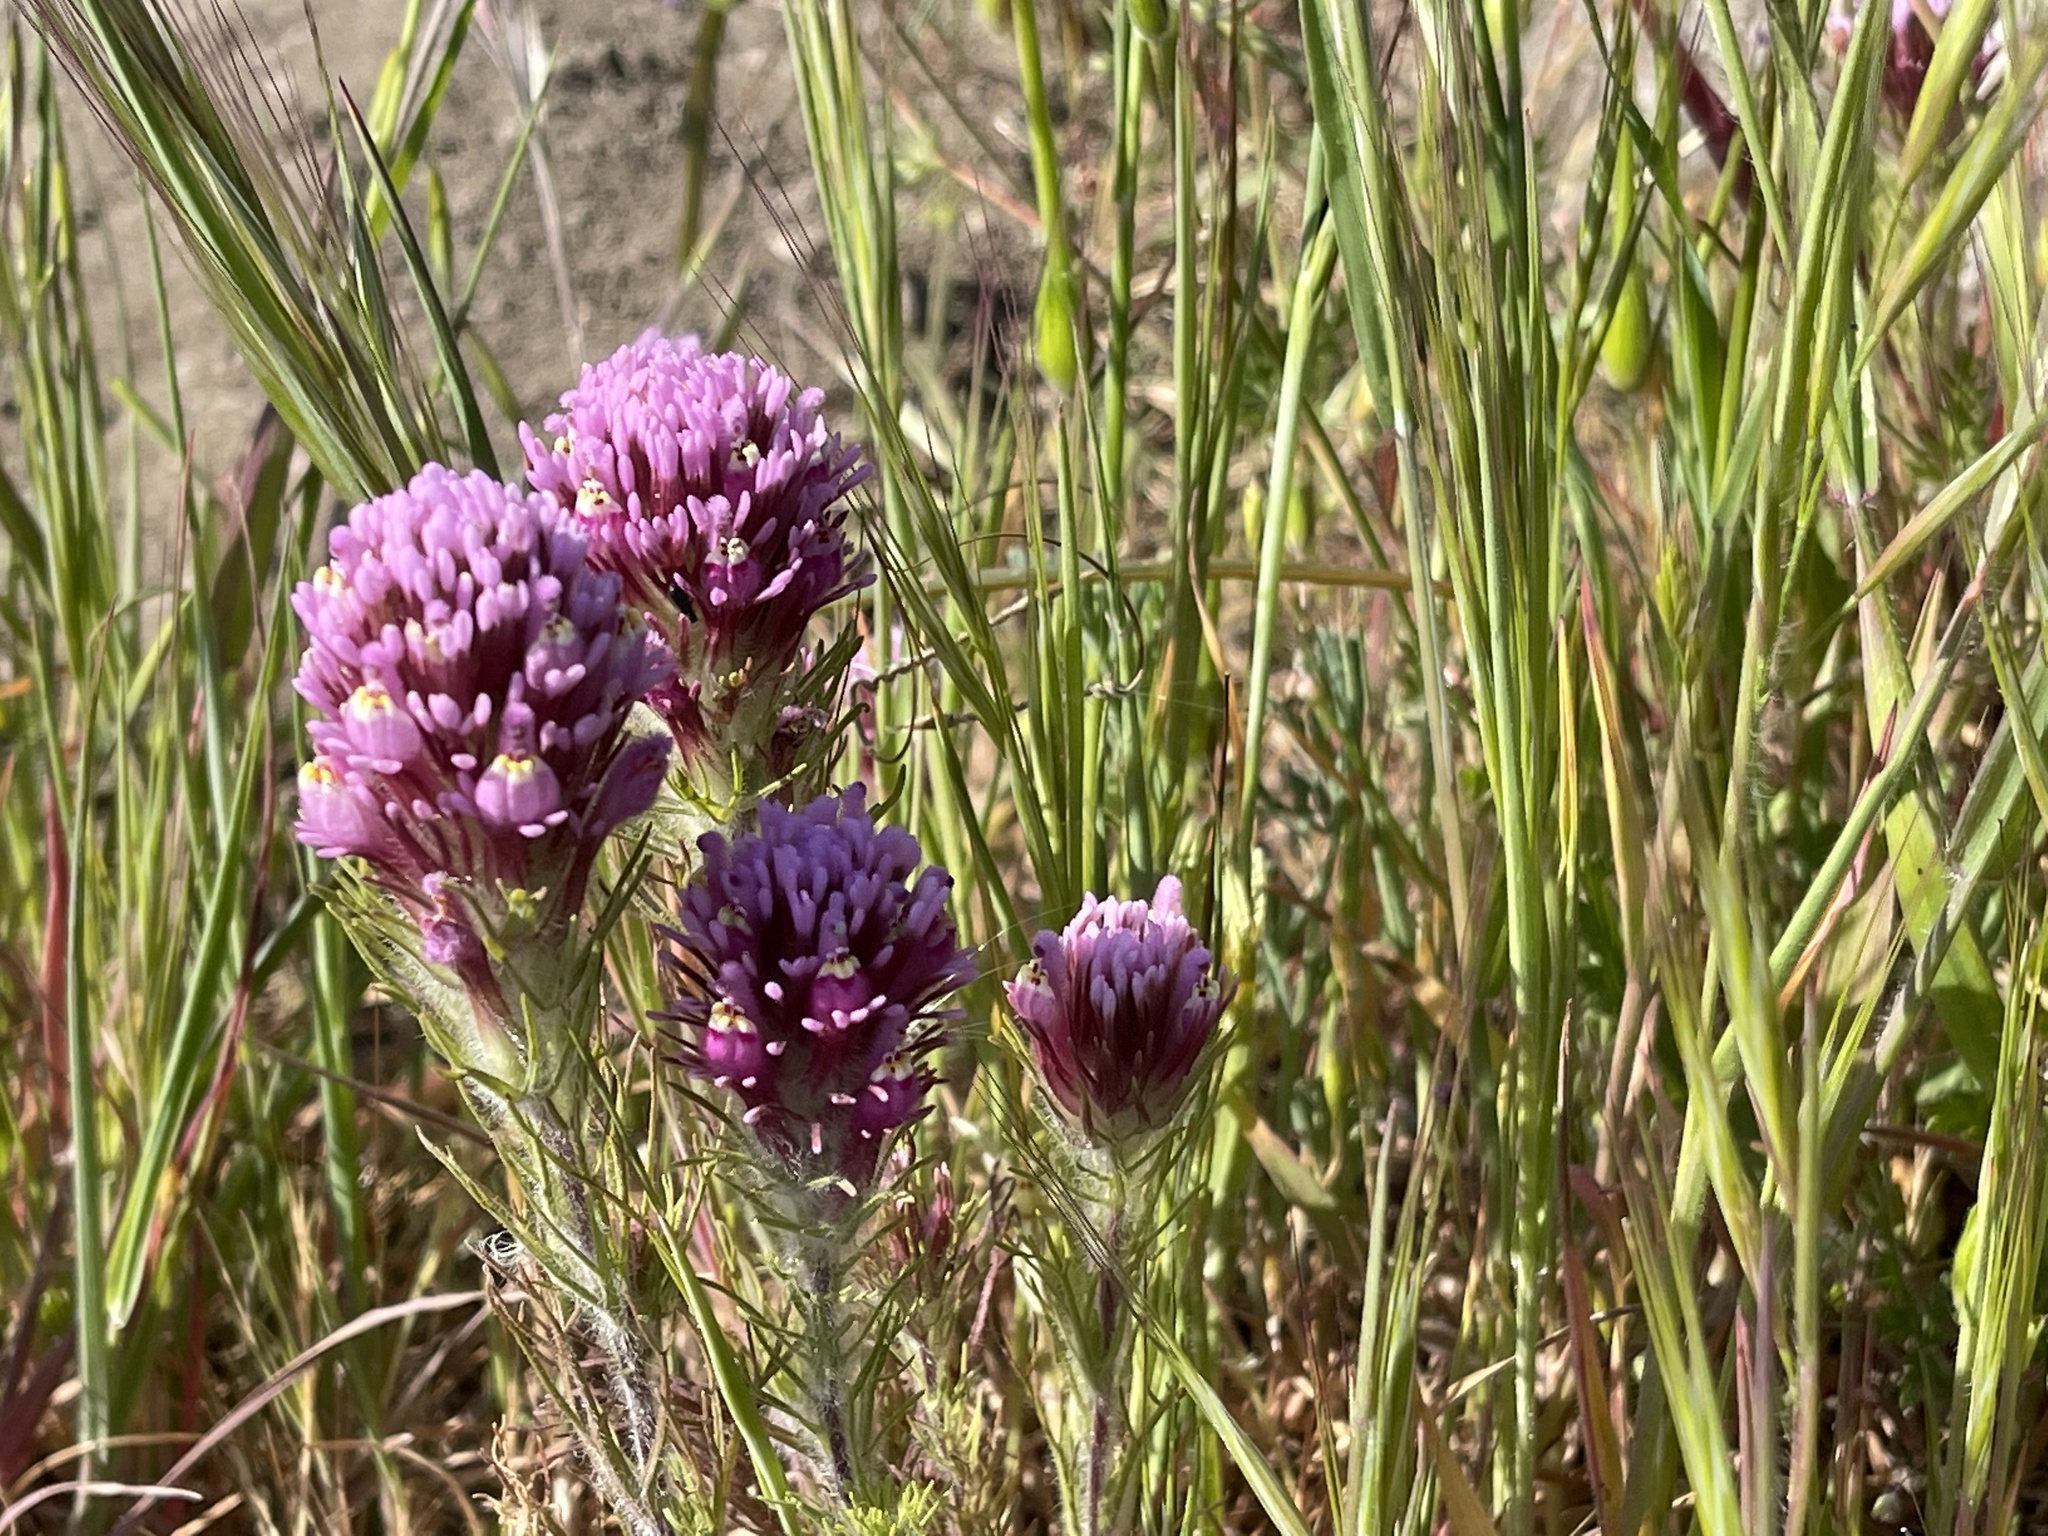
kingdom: Plantae
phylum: Tracheophyta
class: Magnoliopsida
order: Lamiales
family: Orobanchaceae
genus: Castilleja
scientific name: Castilleja exserta
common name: Purple owl-clover
